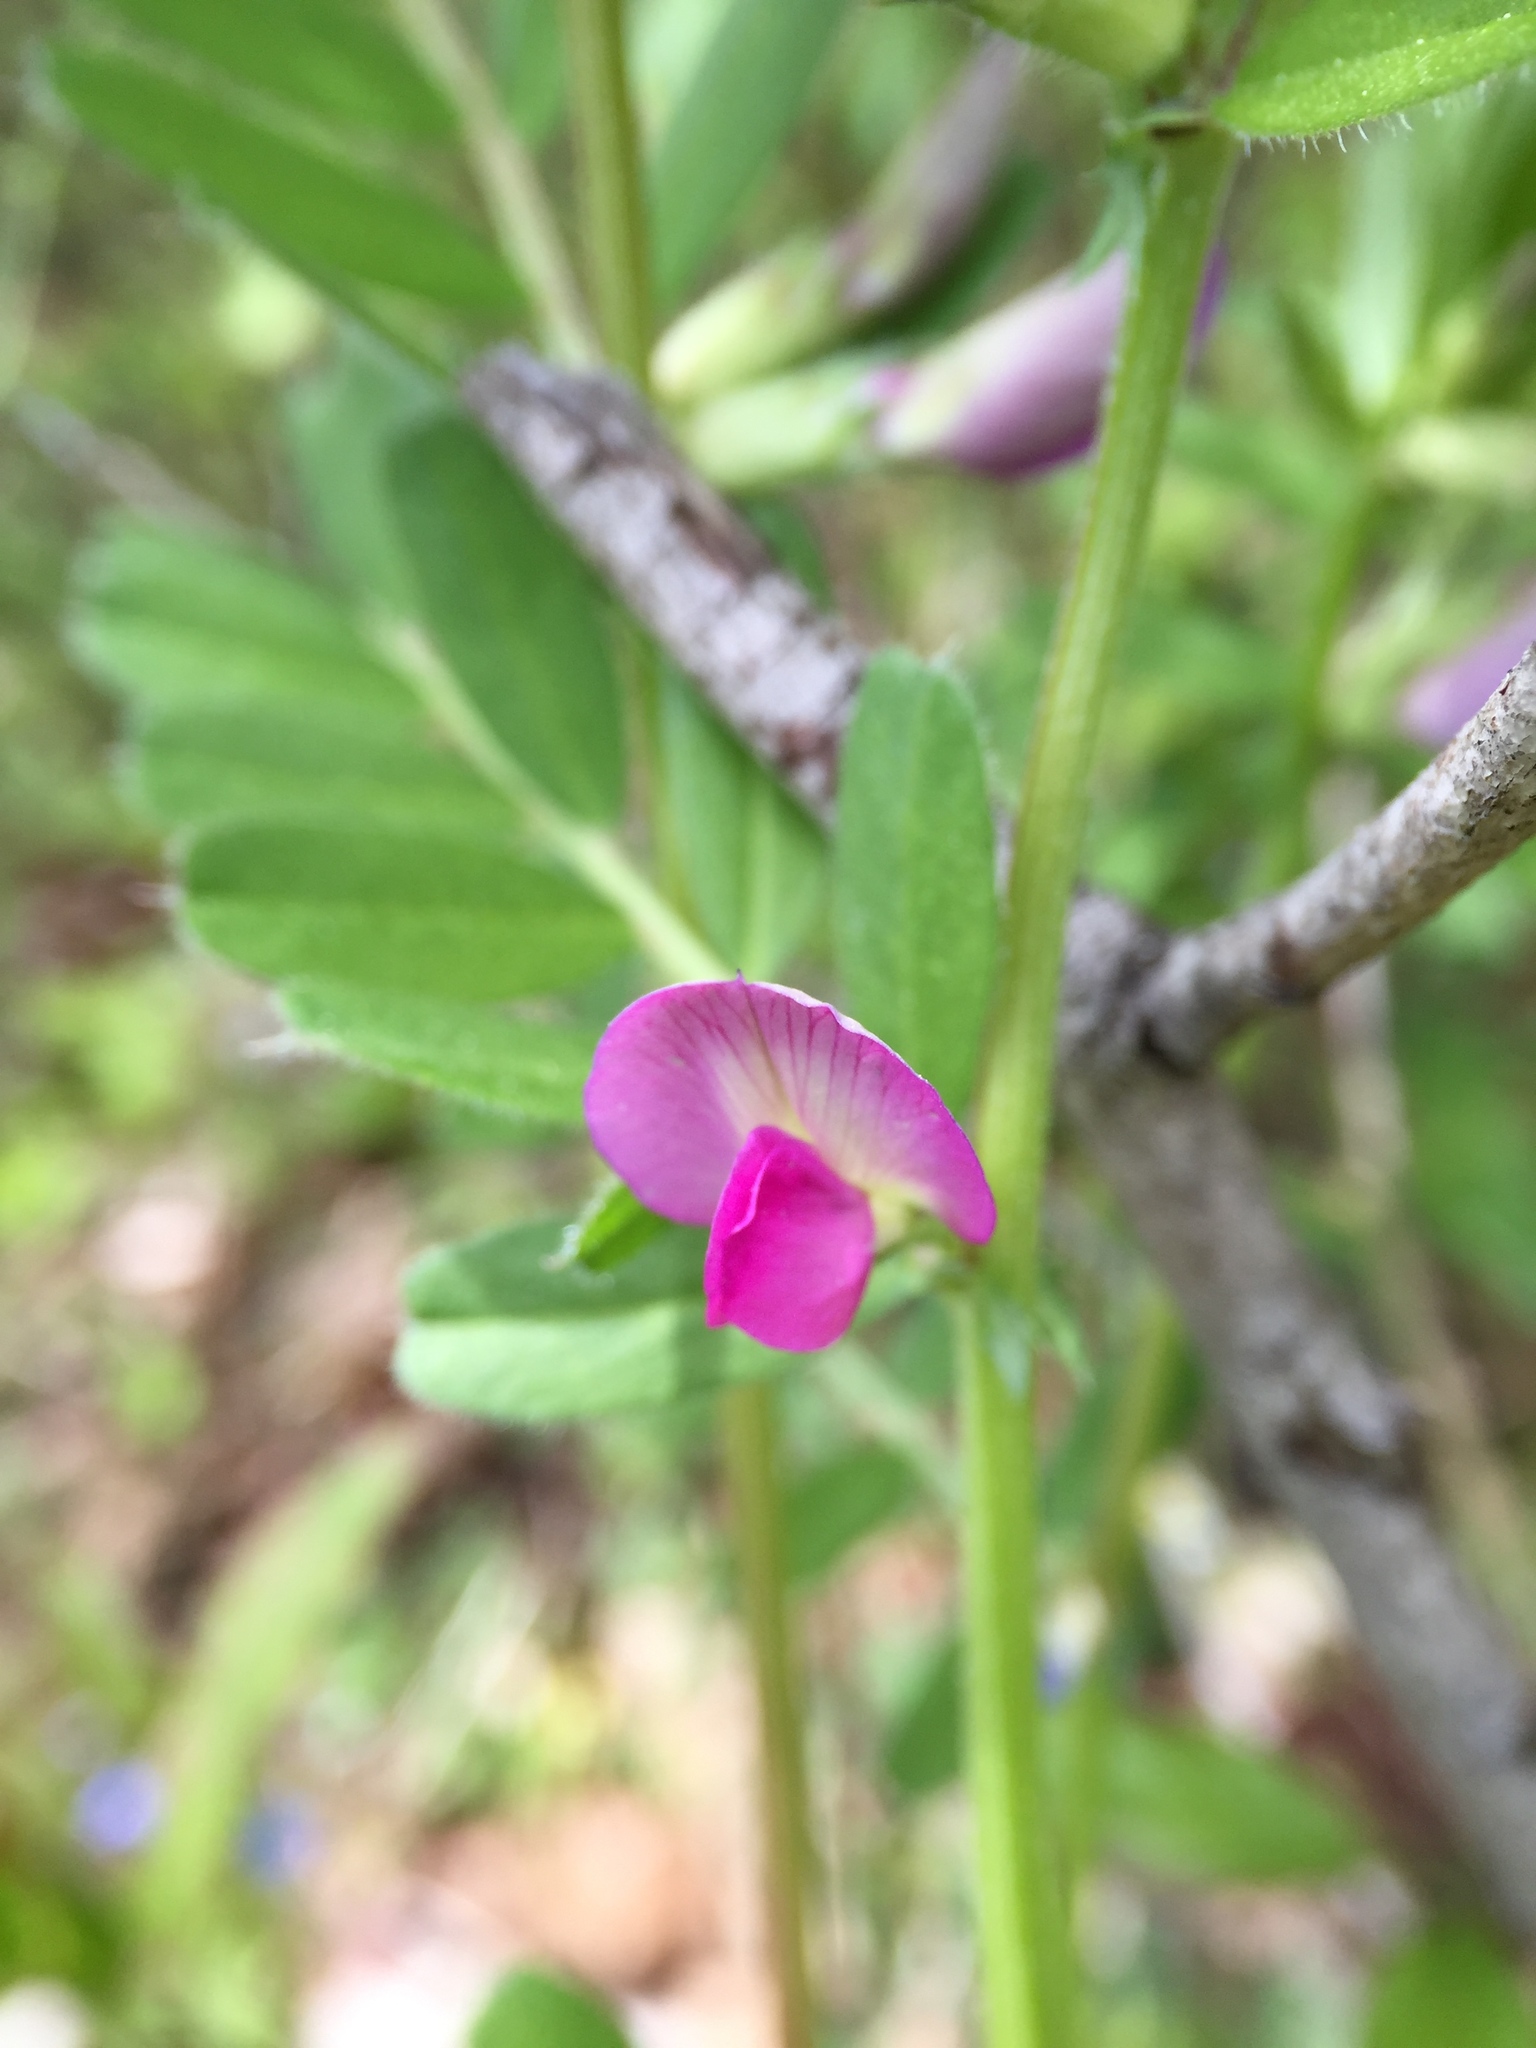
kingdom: Plantae
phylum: Tracheophyta
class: Magnoliopsida
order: Fabales
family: Fabaceae
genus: Vicia
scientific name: Vicia sativa
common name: Garden vetch
